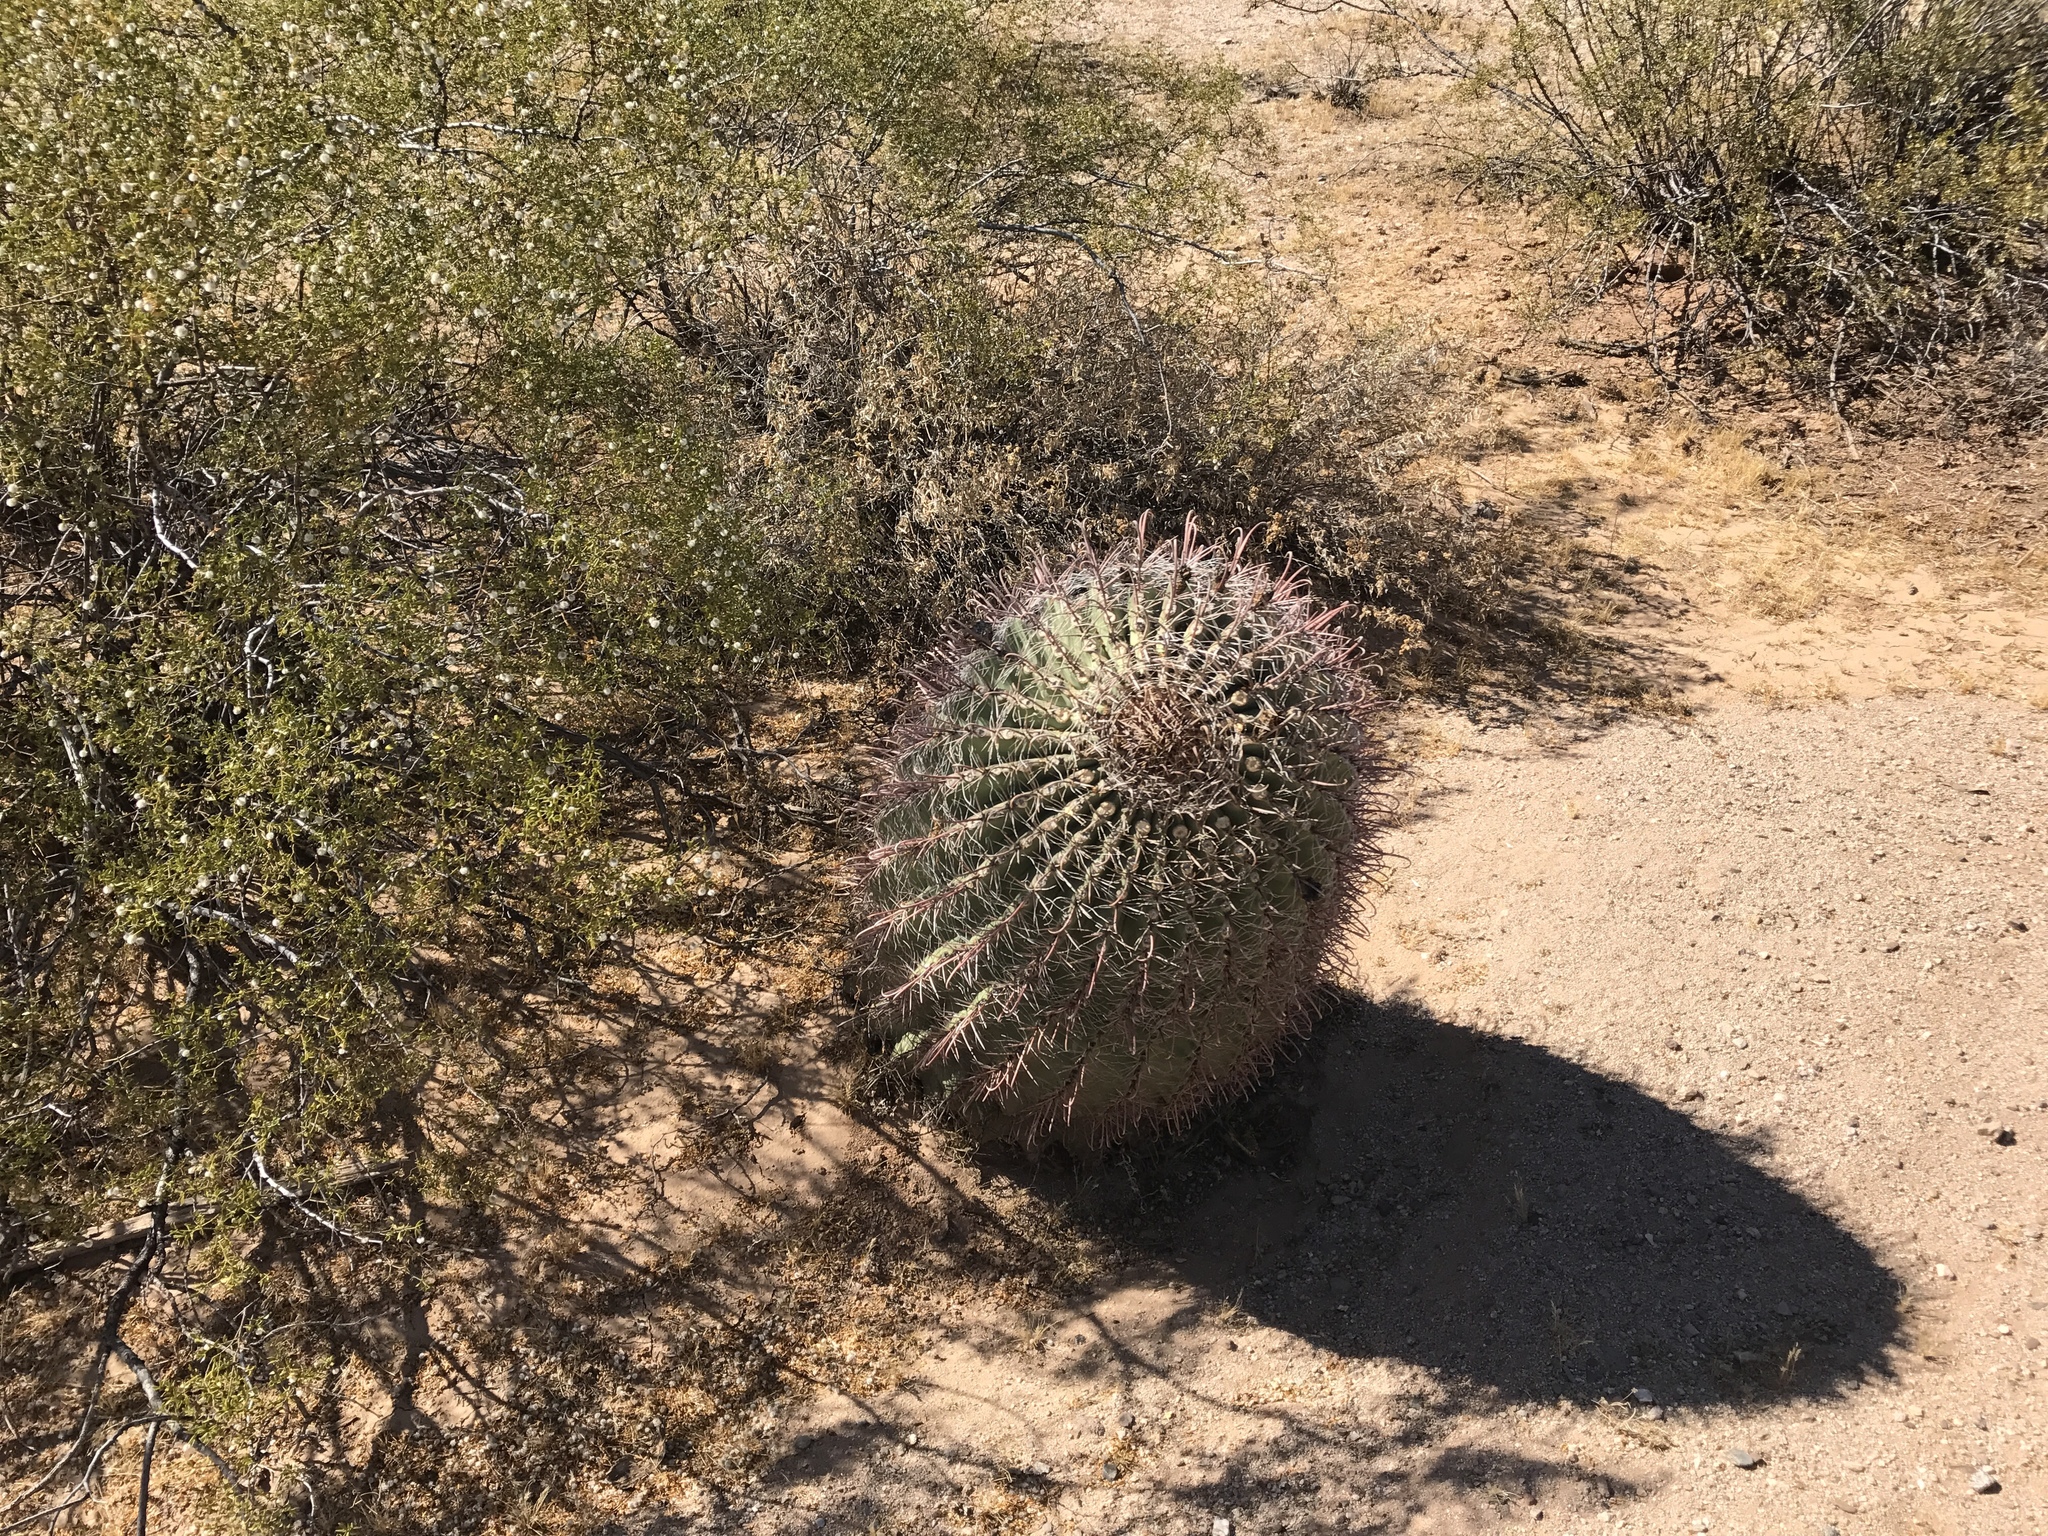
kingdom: Plantae
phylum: Tracheophyta
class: Magnoliopsida
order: Caryophyllales
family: Cactaceae
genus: Ferocactus
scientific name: Ferocactus wislizeni
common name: Candy barrel cactus
